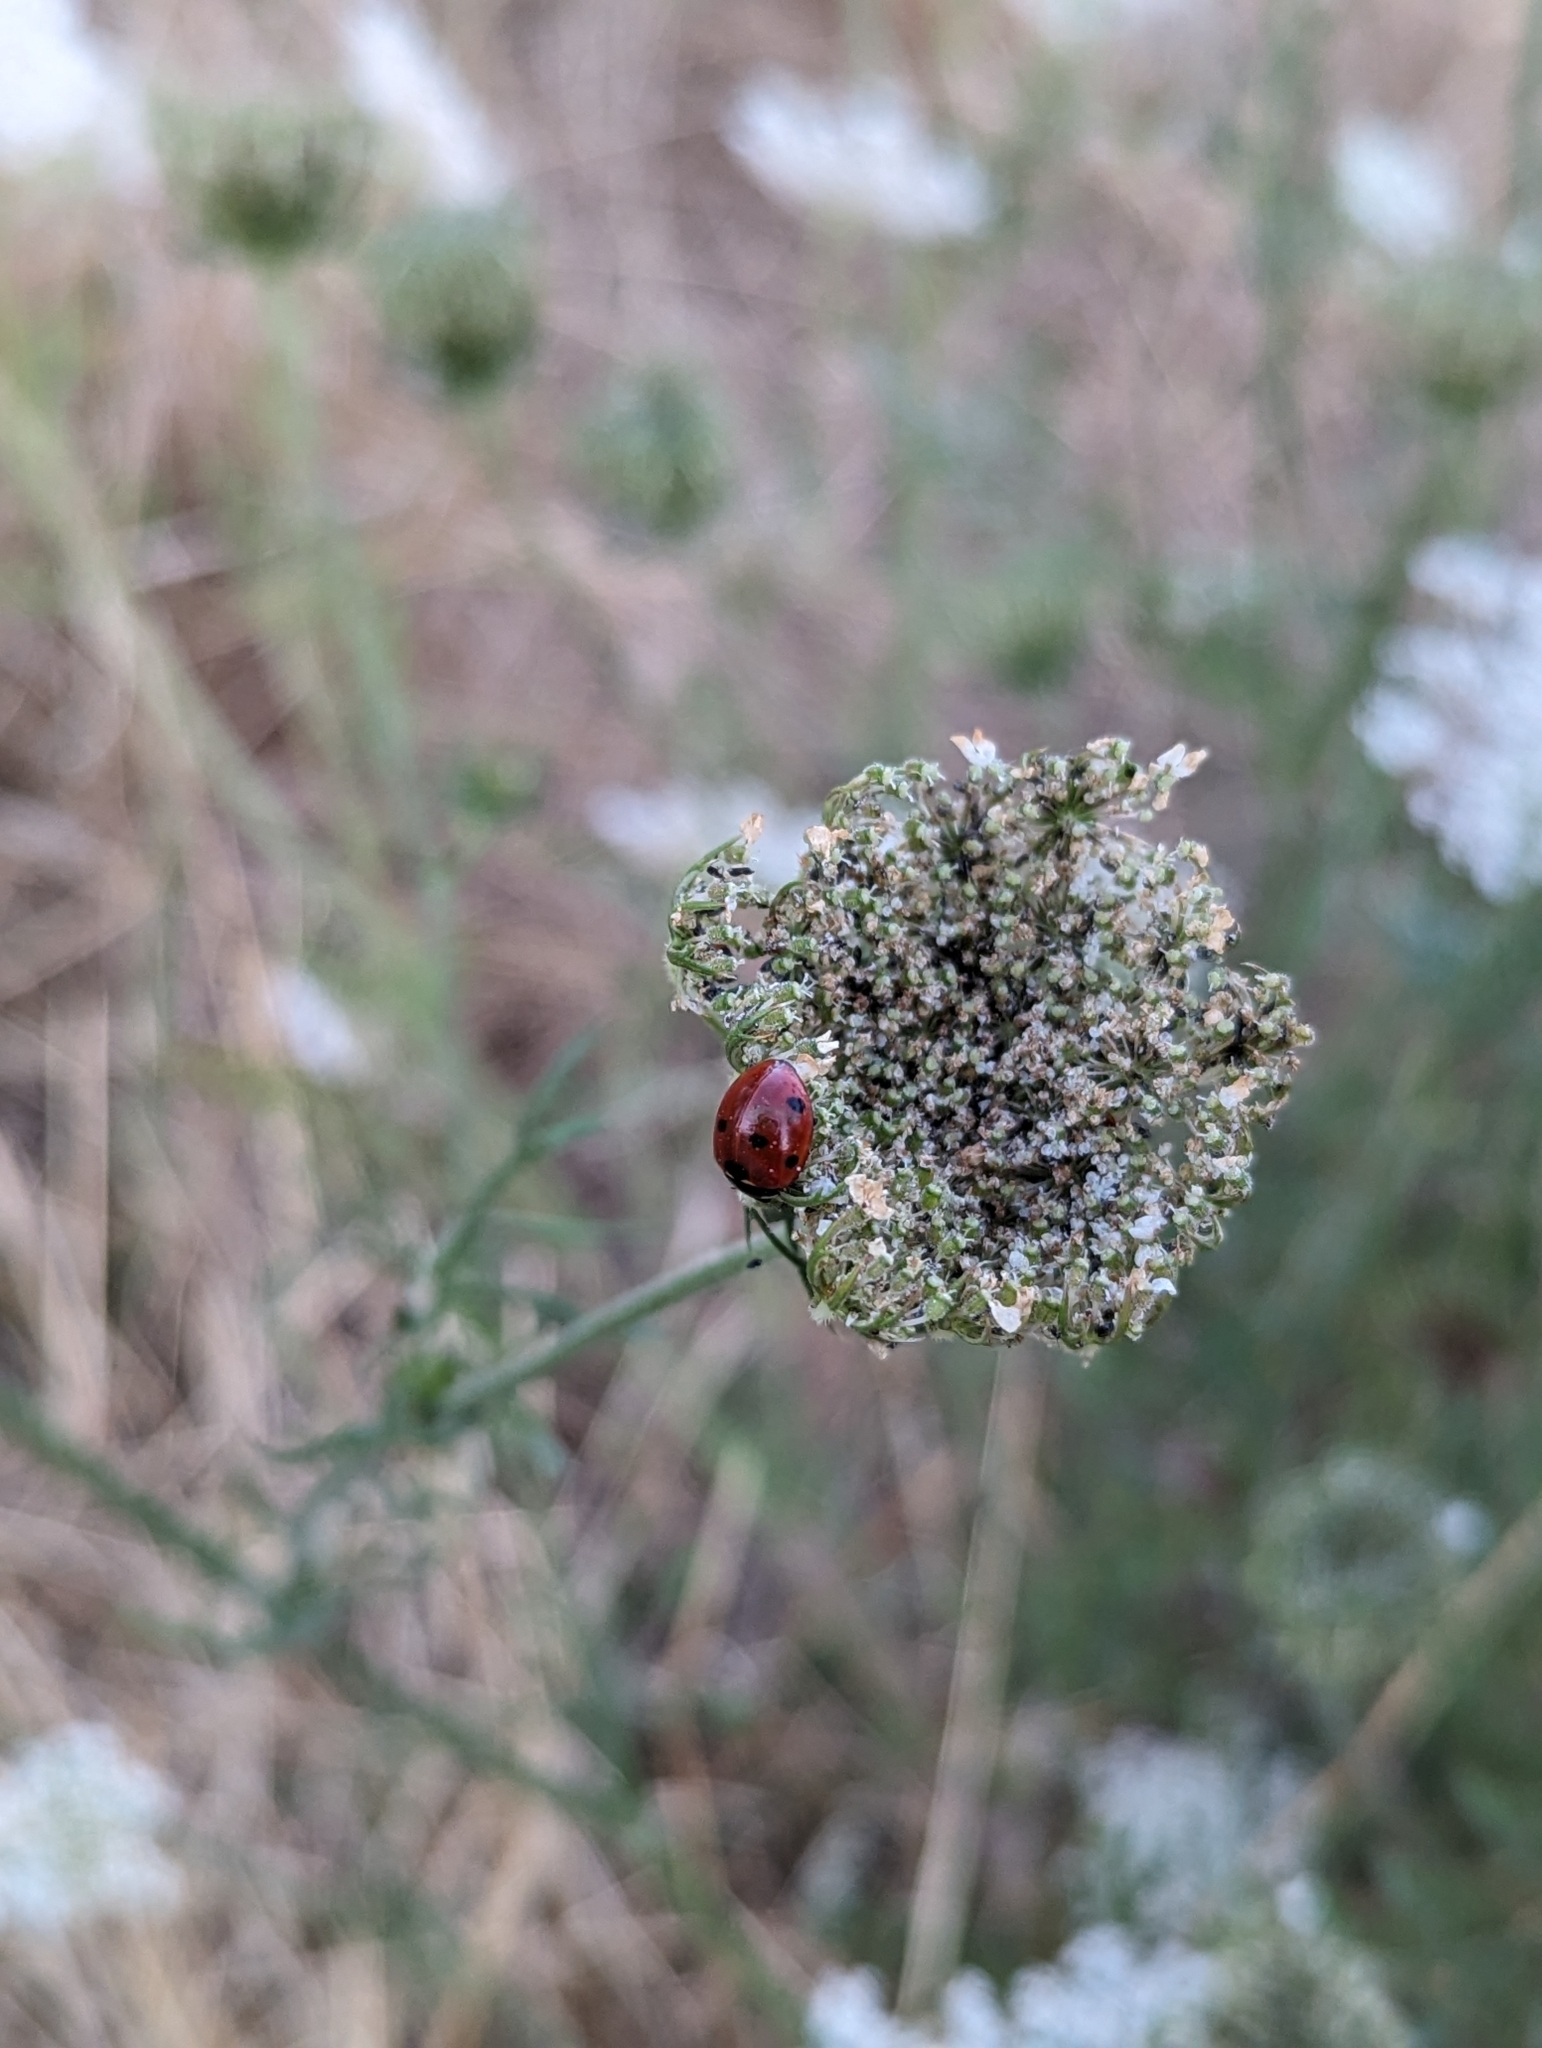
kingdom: Animalia
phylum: Arthropoda
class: Insecta
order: Coleoptera
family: Coccinellidae
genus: Coccinella
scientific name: Coccinella septempunctata
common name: Sevenspotted lady beetle
